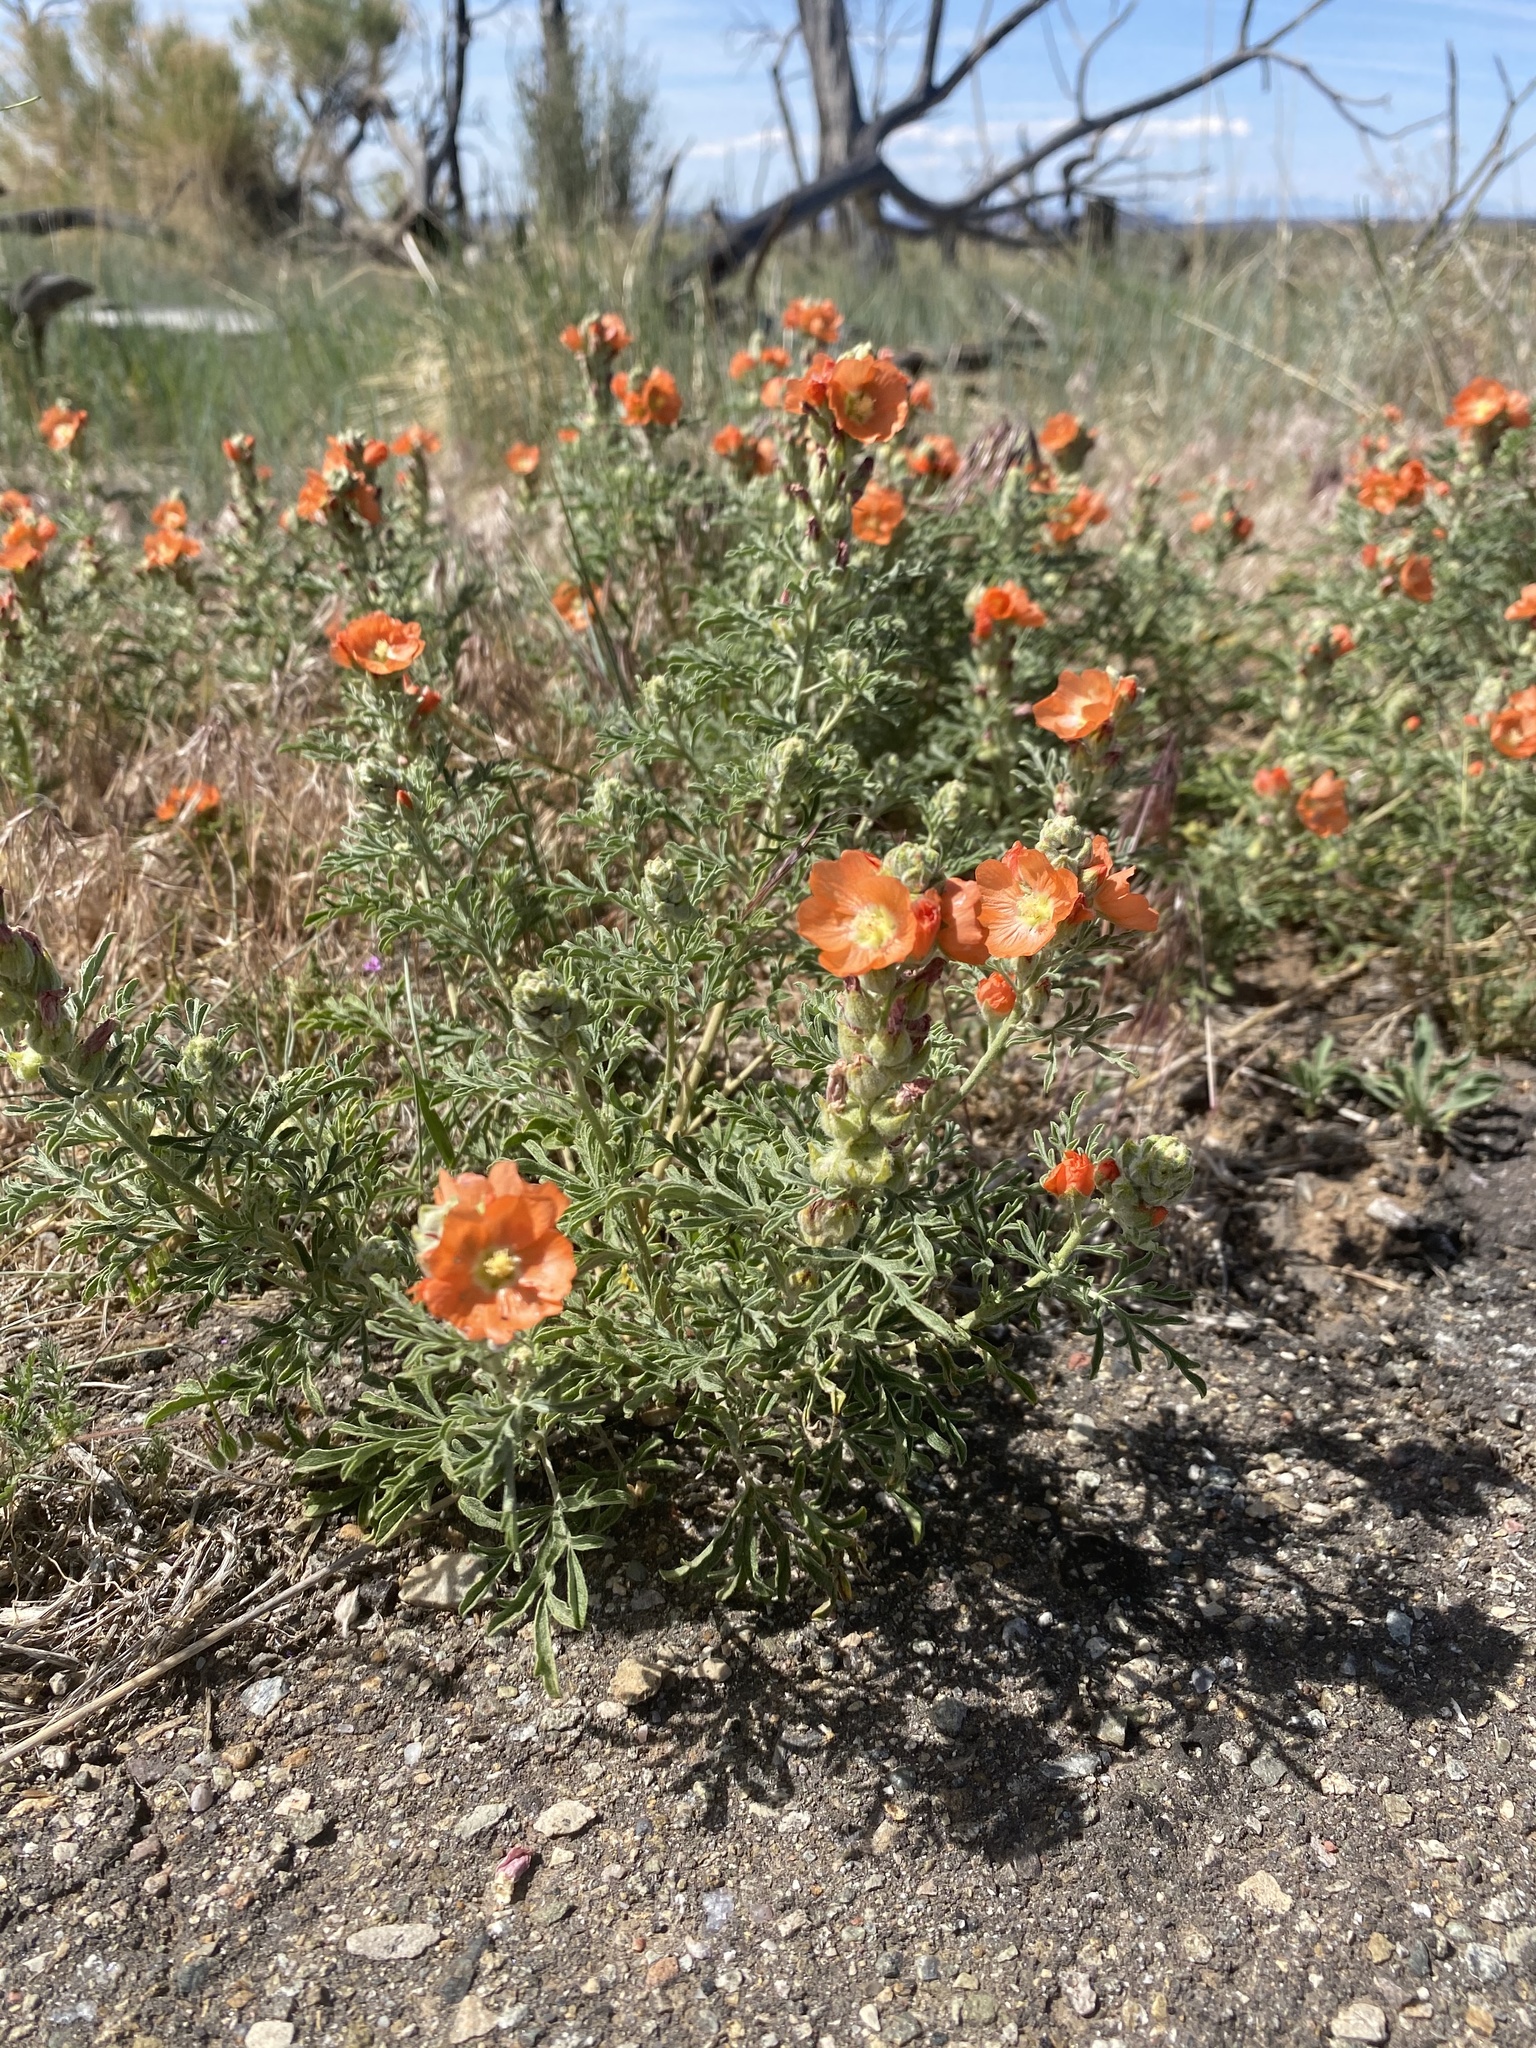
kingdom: Plantae
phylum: Tracheophyta
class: Magnoliopsida
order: Malvales
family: Malvaceae
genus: Sphaeralcea
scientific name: Sphaeralcea coccinea
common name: Moss-rose
